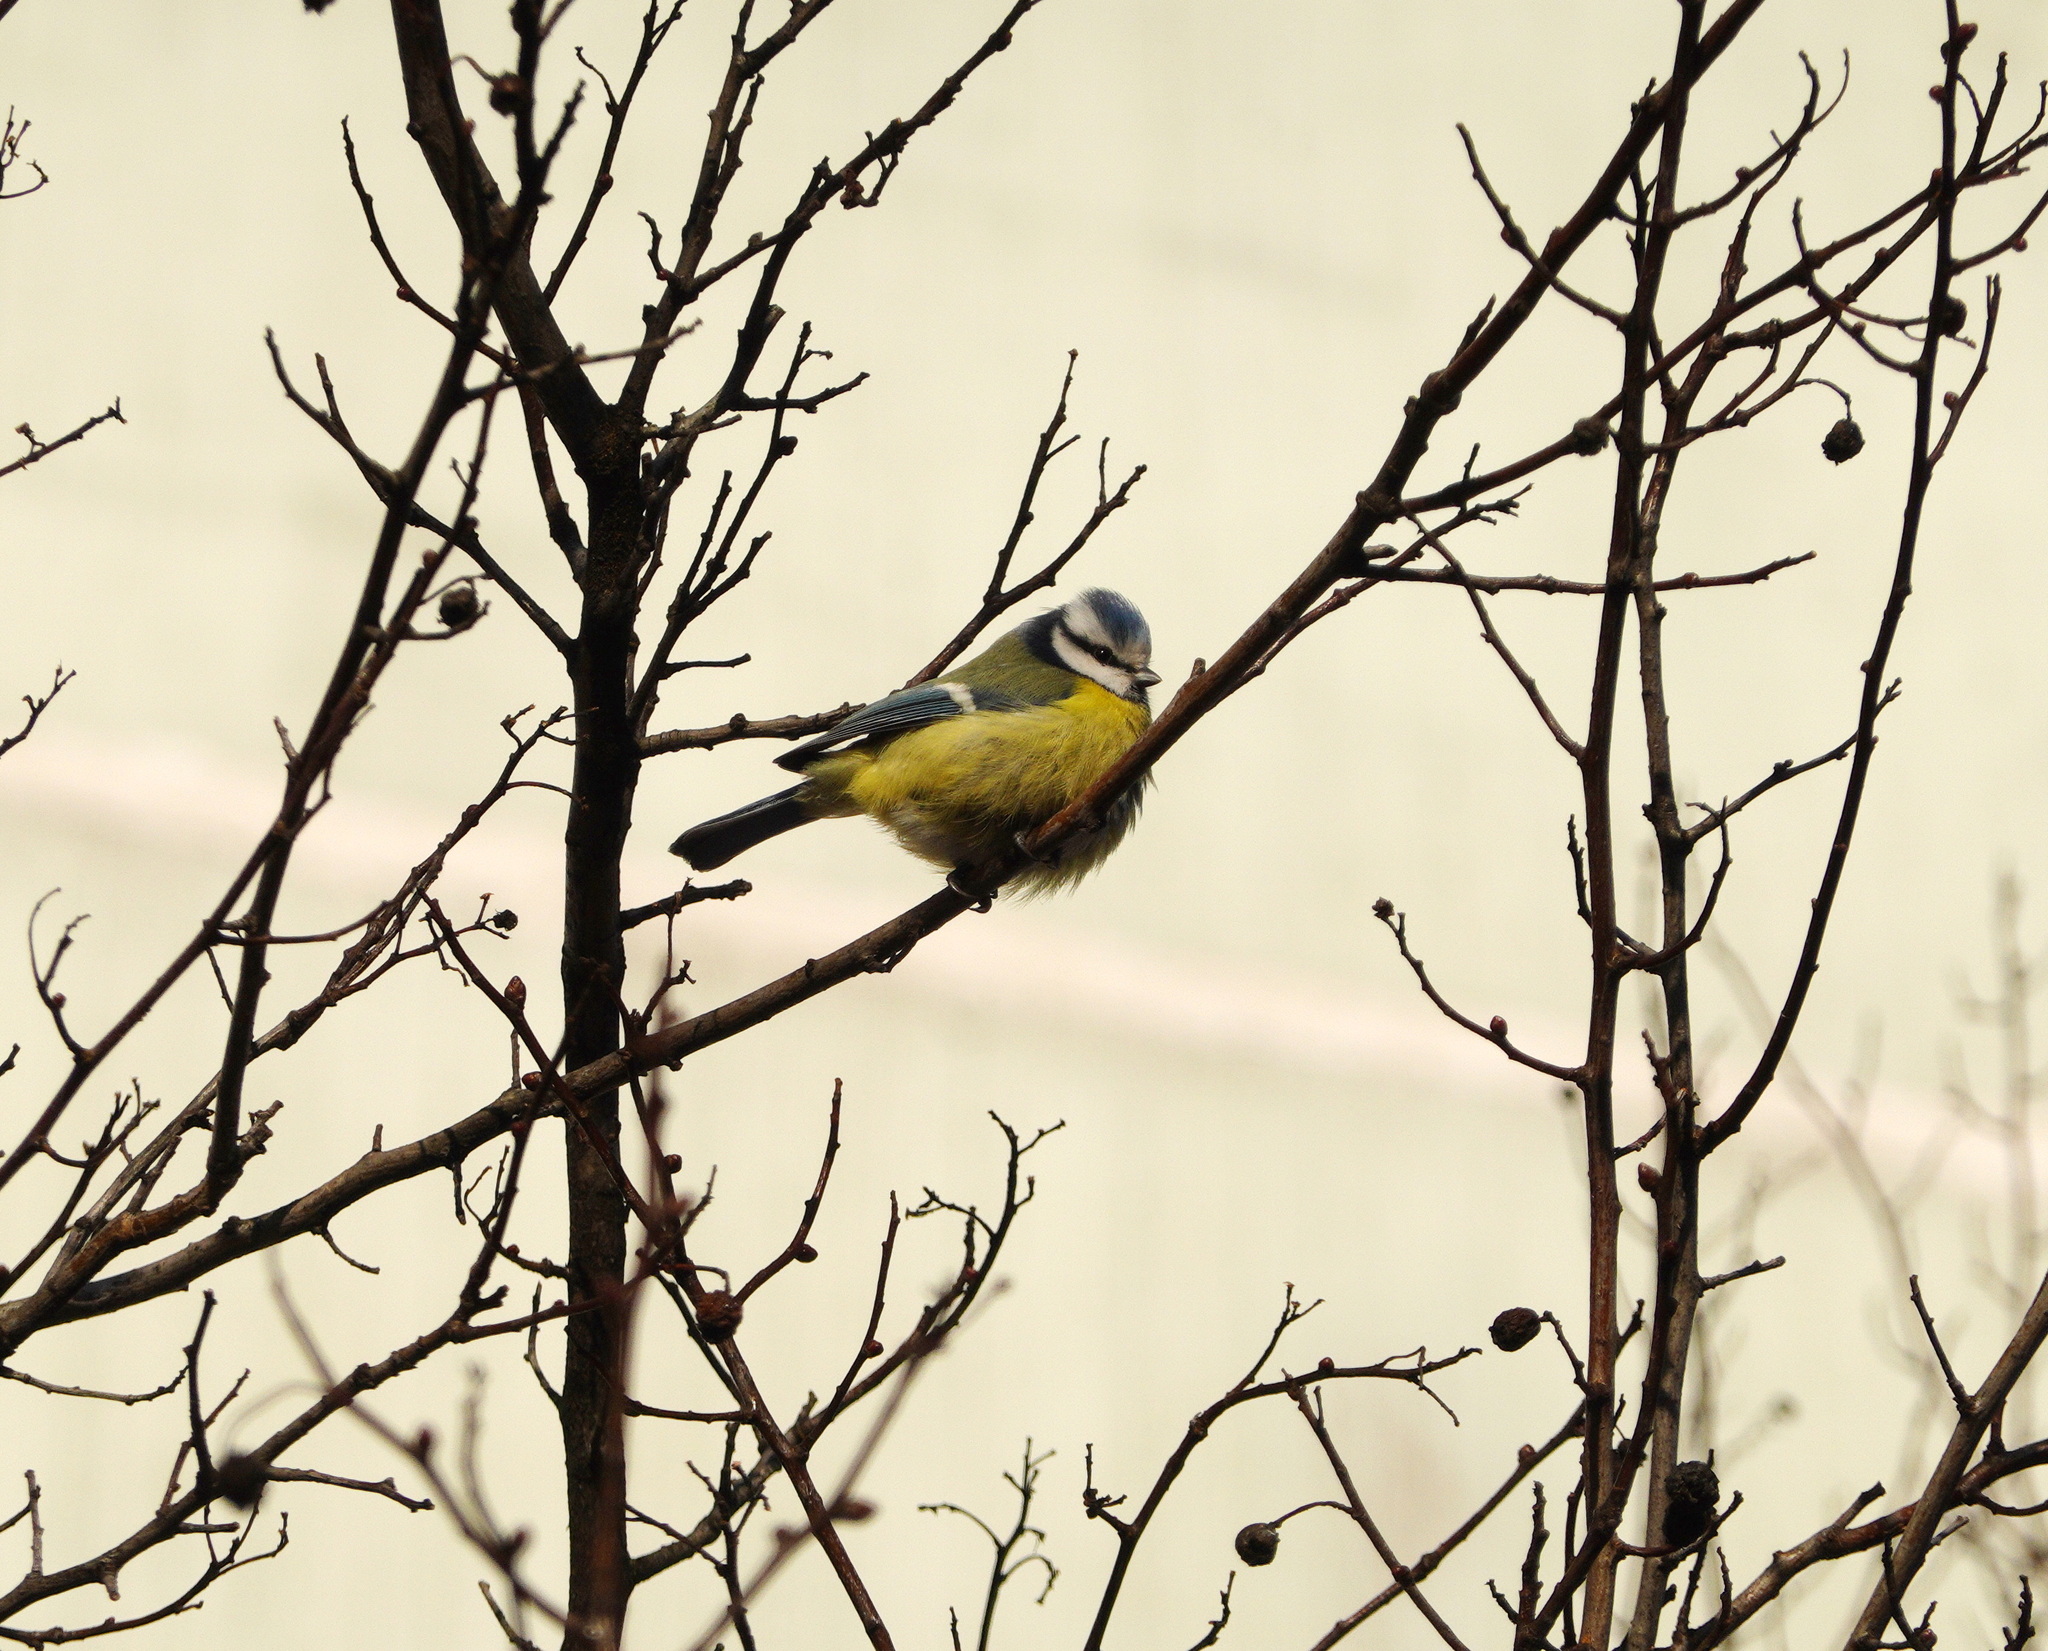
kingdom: Animalia
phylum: Chordata
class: Aves
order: Passeriformes
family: Paridae
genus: Cyanistes
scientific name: Cyanistes caeruleus
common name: Eurasian blue tit
